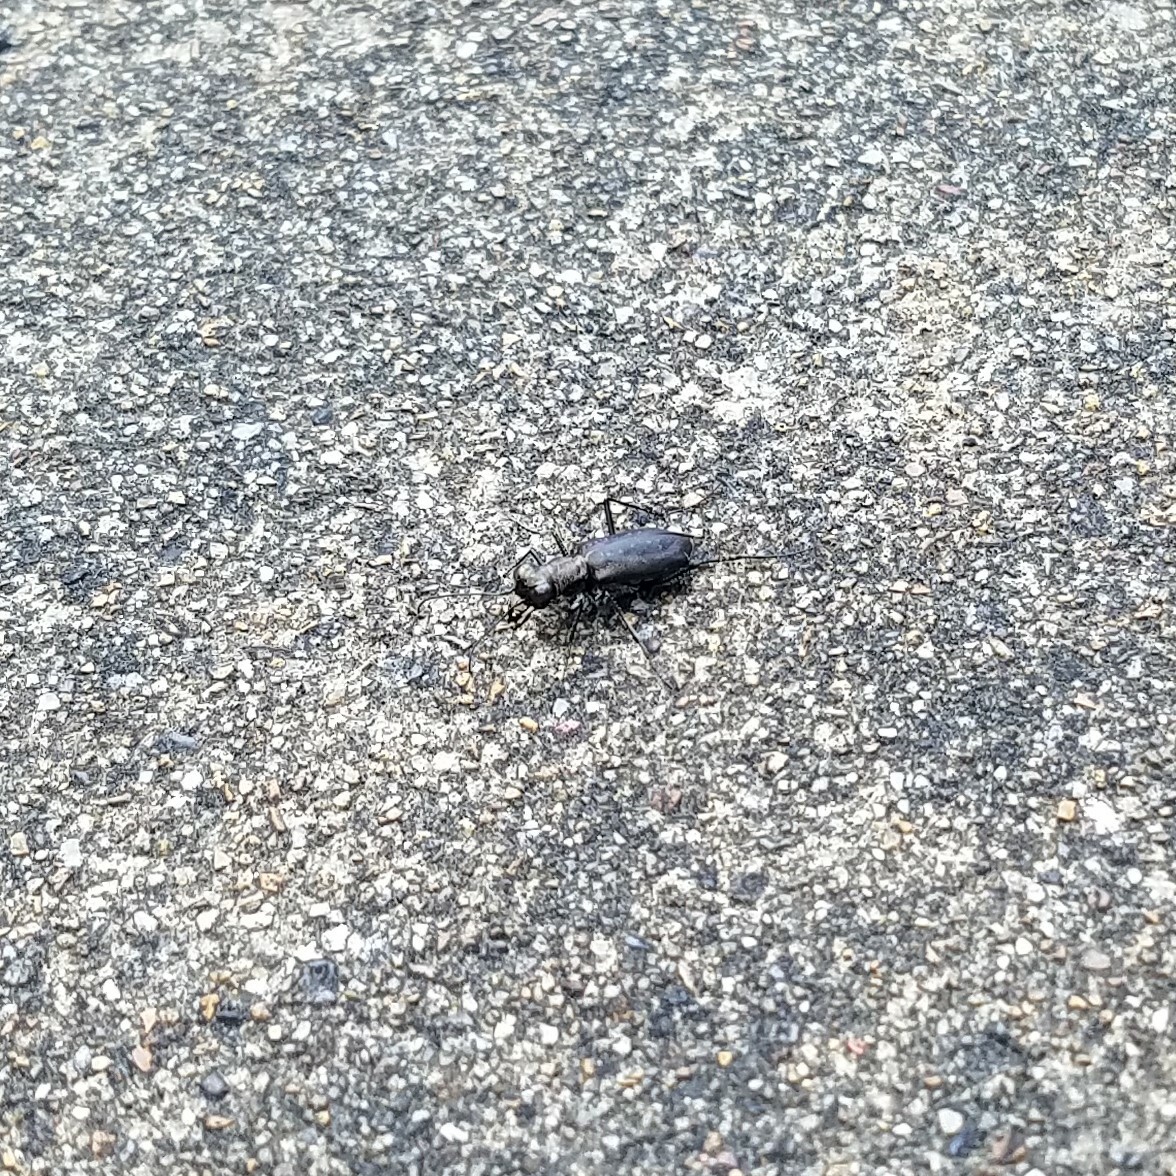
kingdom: Animalia
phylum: Arthropoda
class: Insecta
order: Coleoptera
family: Carabidae
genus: Cicindela
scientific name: Cicindela punctulata
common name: Punctured tiger beetle
